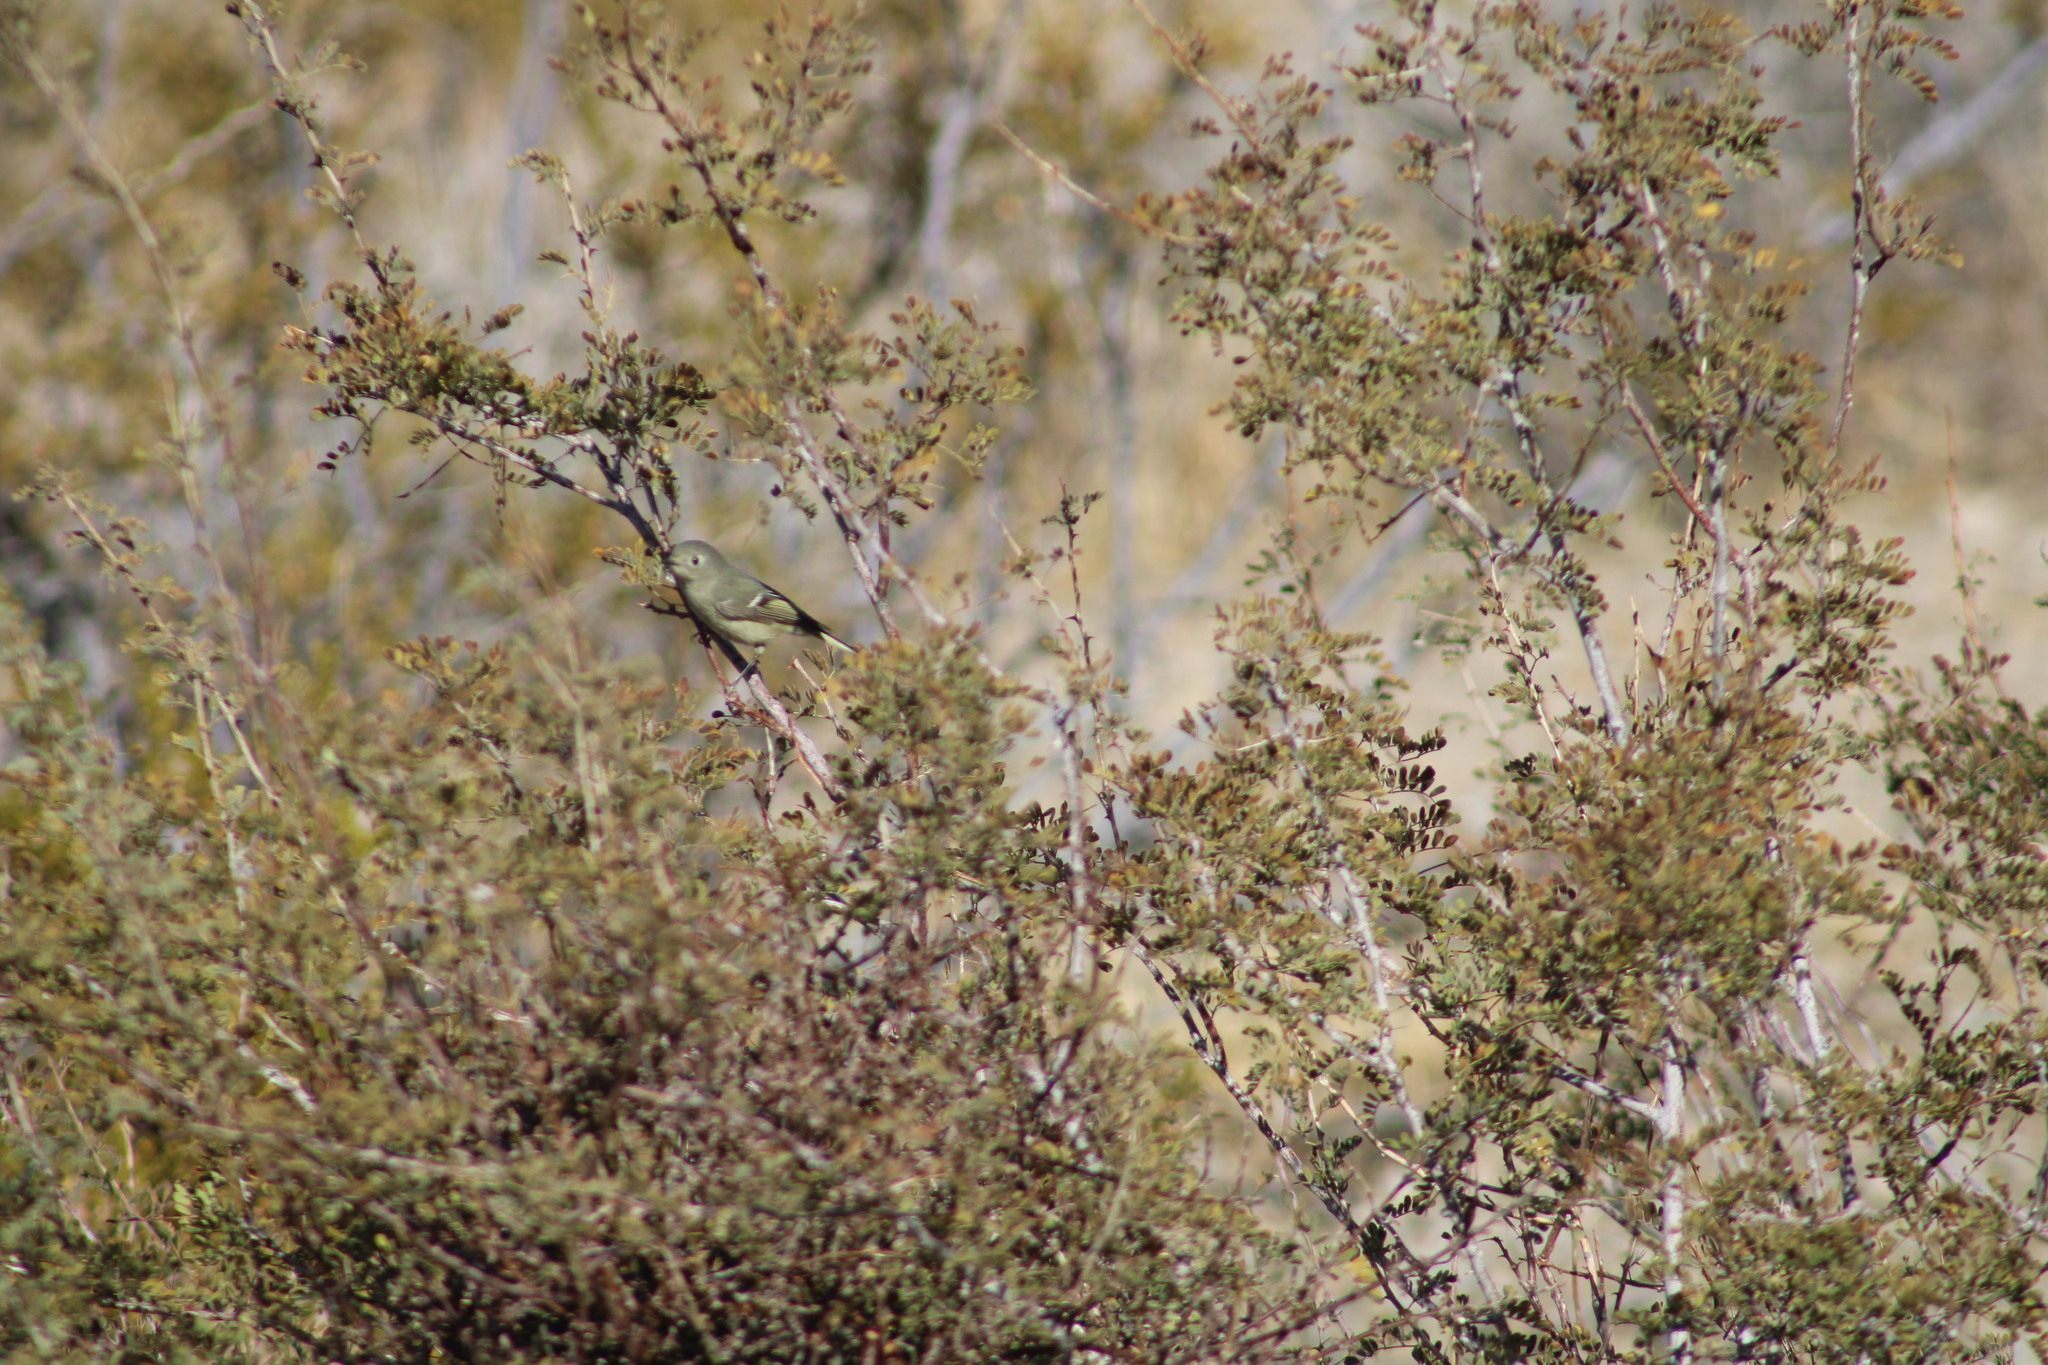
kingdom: Animalia
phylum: Chordata
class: Aves
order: Passeriformes
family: Regulidae
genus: Regulus
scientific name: Regulus calendula
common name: Ruby-crowned kinglet
